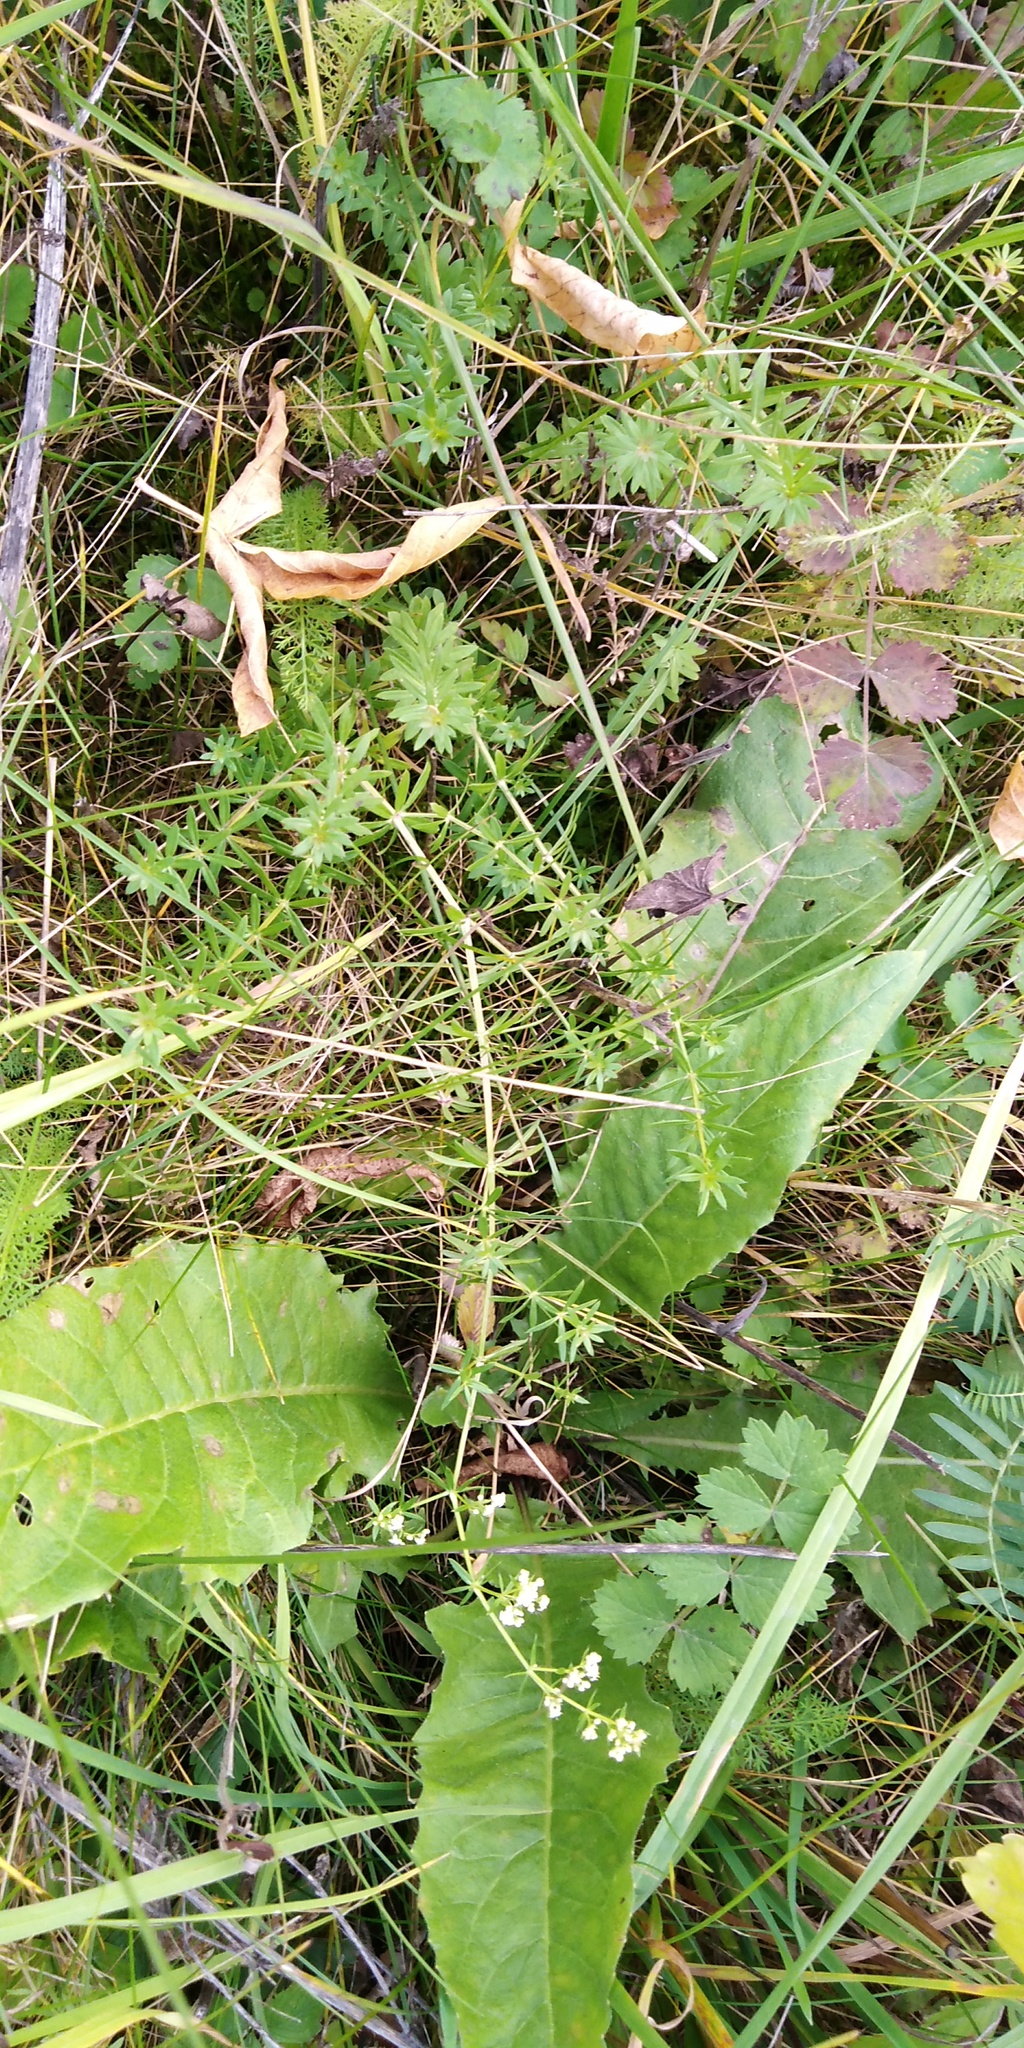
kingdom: Plantae
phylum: Tracheophyta
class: Magnoliopsida
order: Gentianales
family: Rubiaceae
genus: Galium
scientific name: Galium mollugo
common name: Hedge bedstraw
